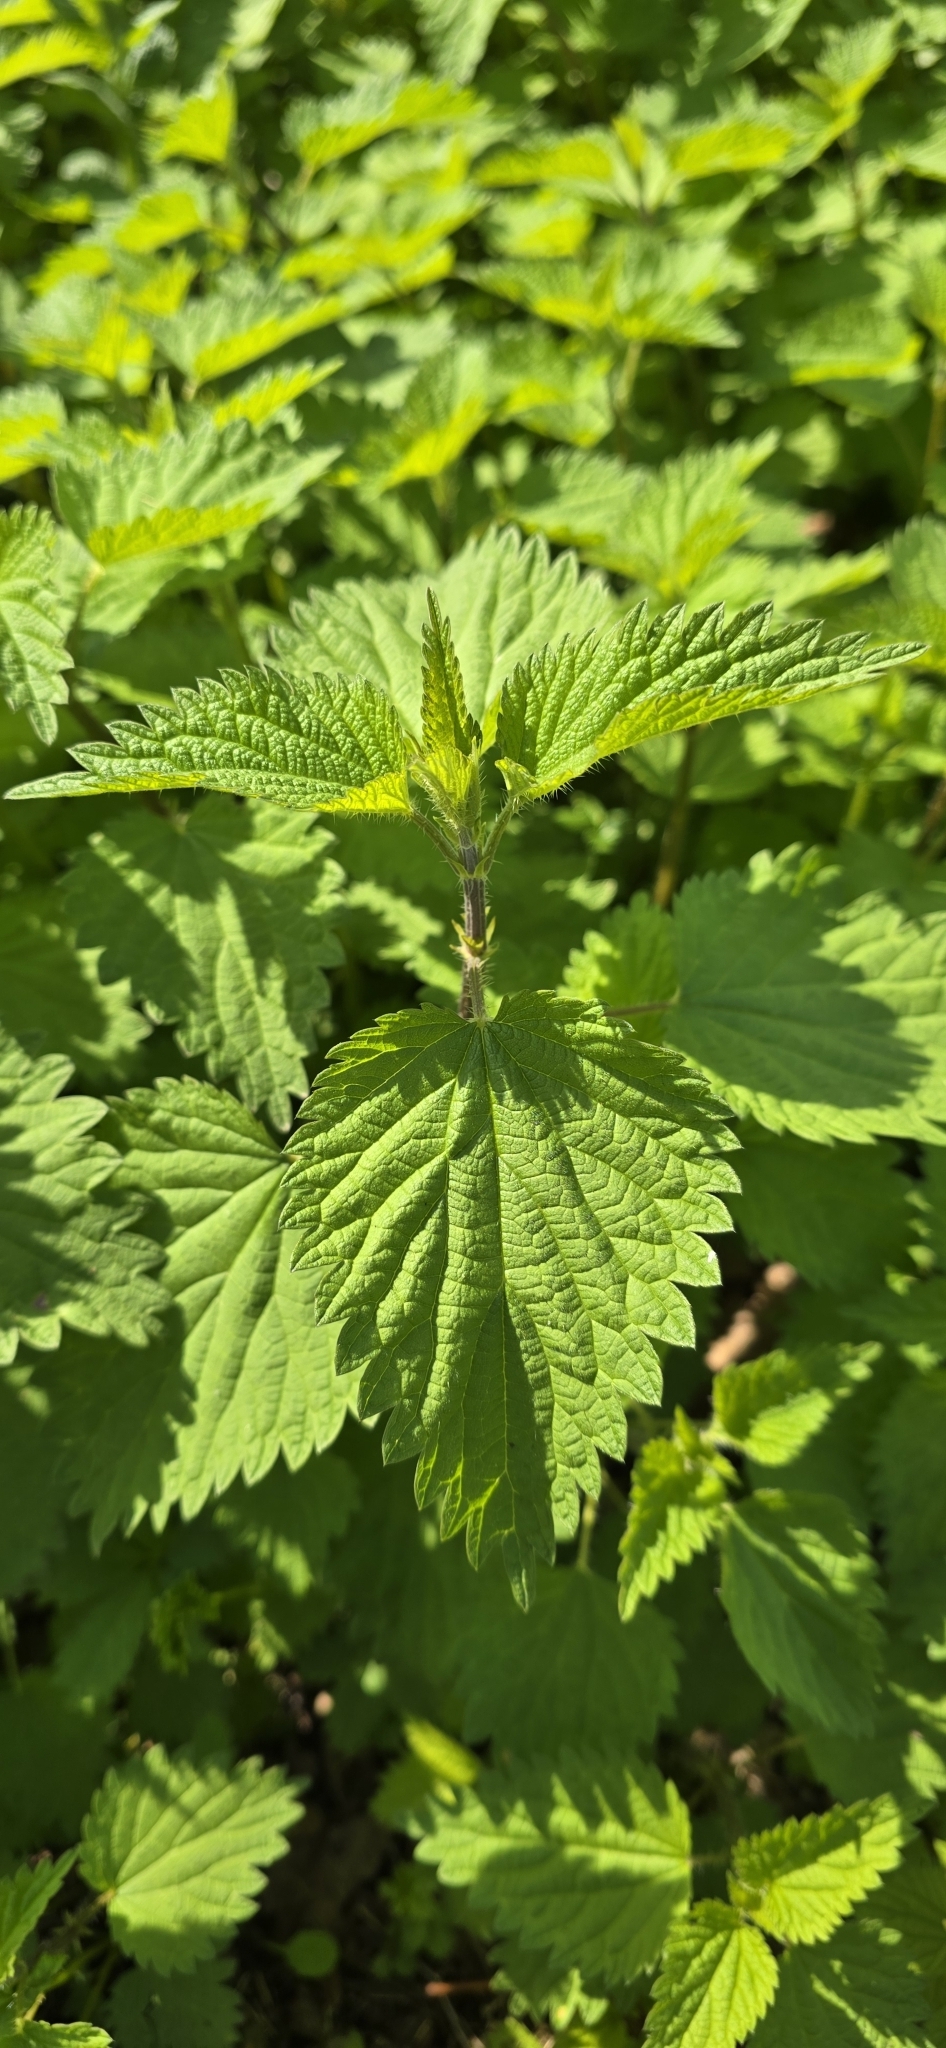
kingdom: Plantae
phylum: Tracheophyta
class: Magnoliopsida
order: Rosales
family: Urticaceae
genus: Urtica
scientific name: Urtica dioica
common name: Common nettle
